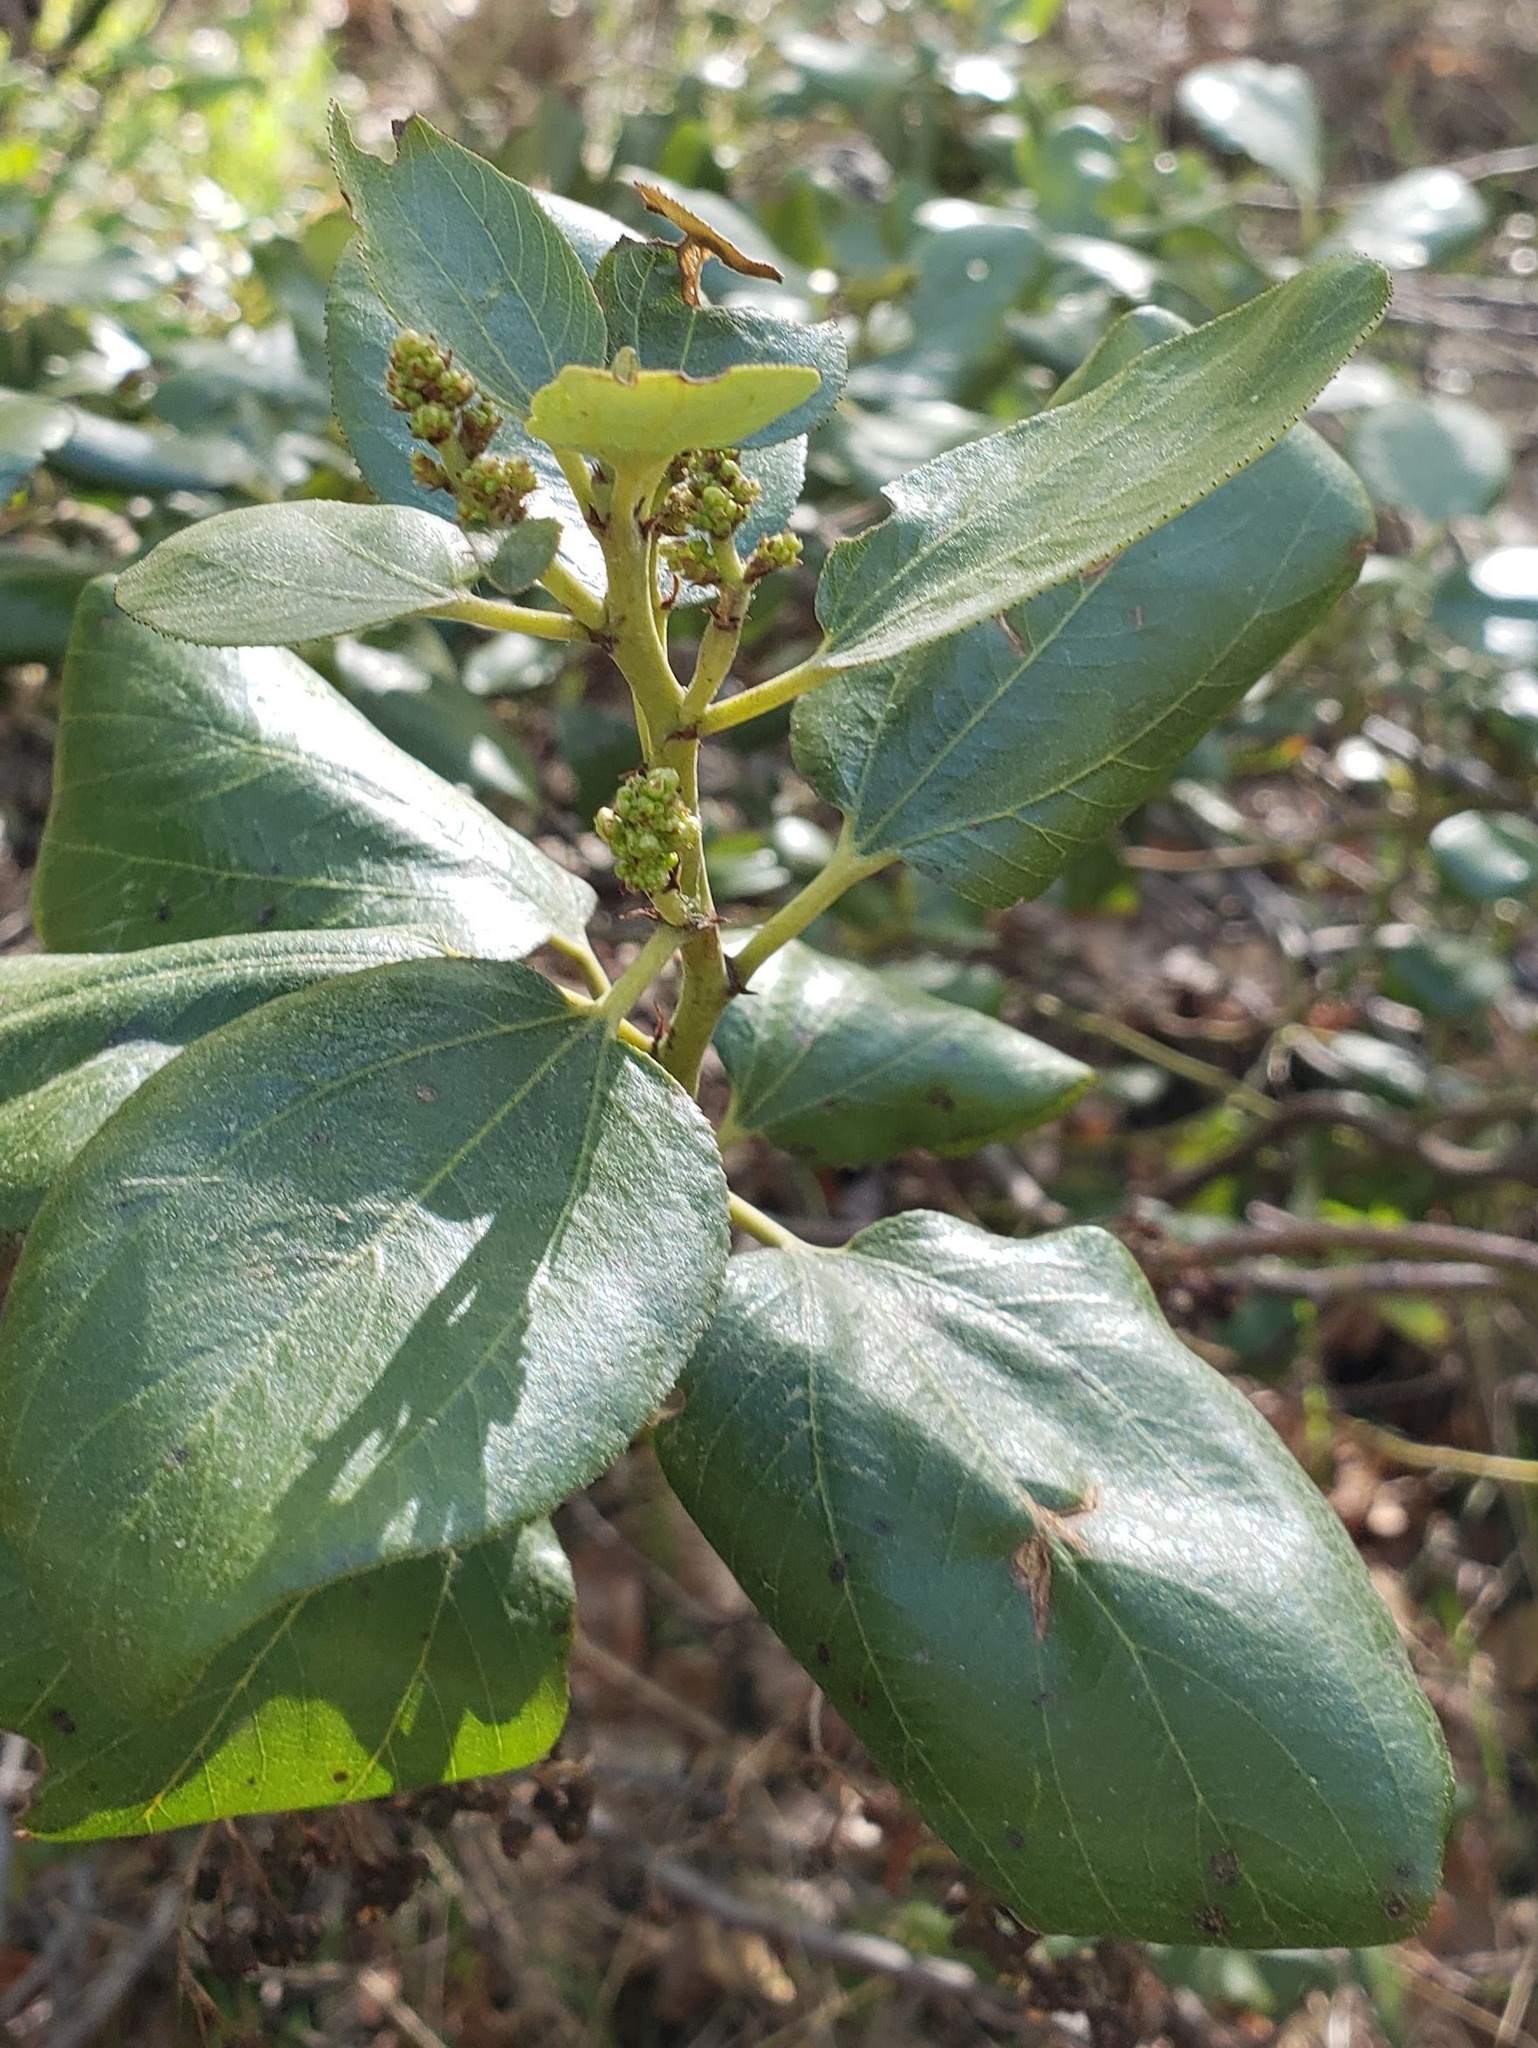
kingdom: Plantae
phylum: Tracheophyta
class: Magnoliopsida
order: Rosales
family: Rhamnaceae
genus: Ceanothus
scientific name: Ceanothus velutinus
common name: Snowbrush
